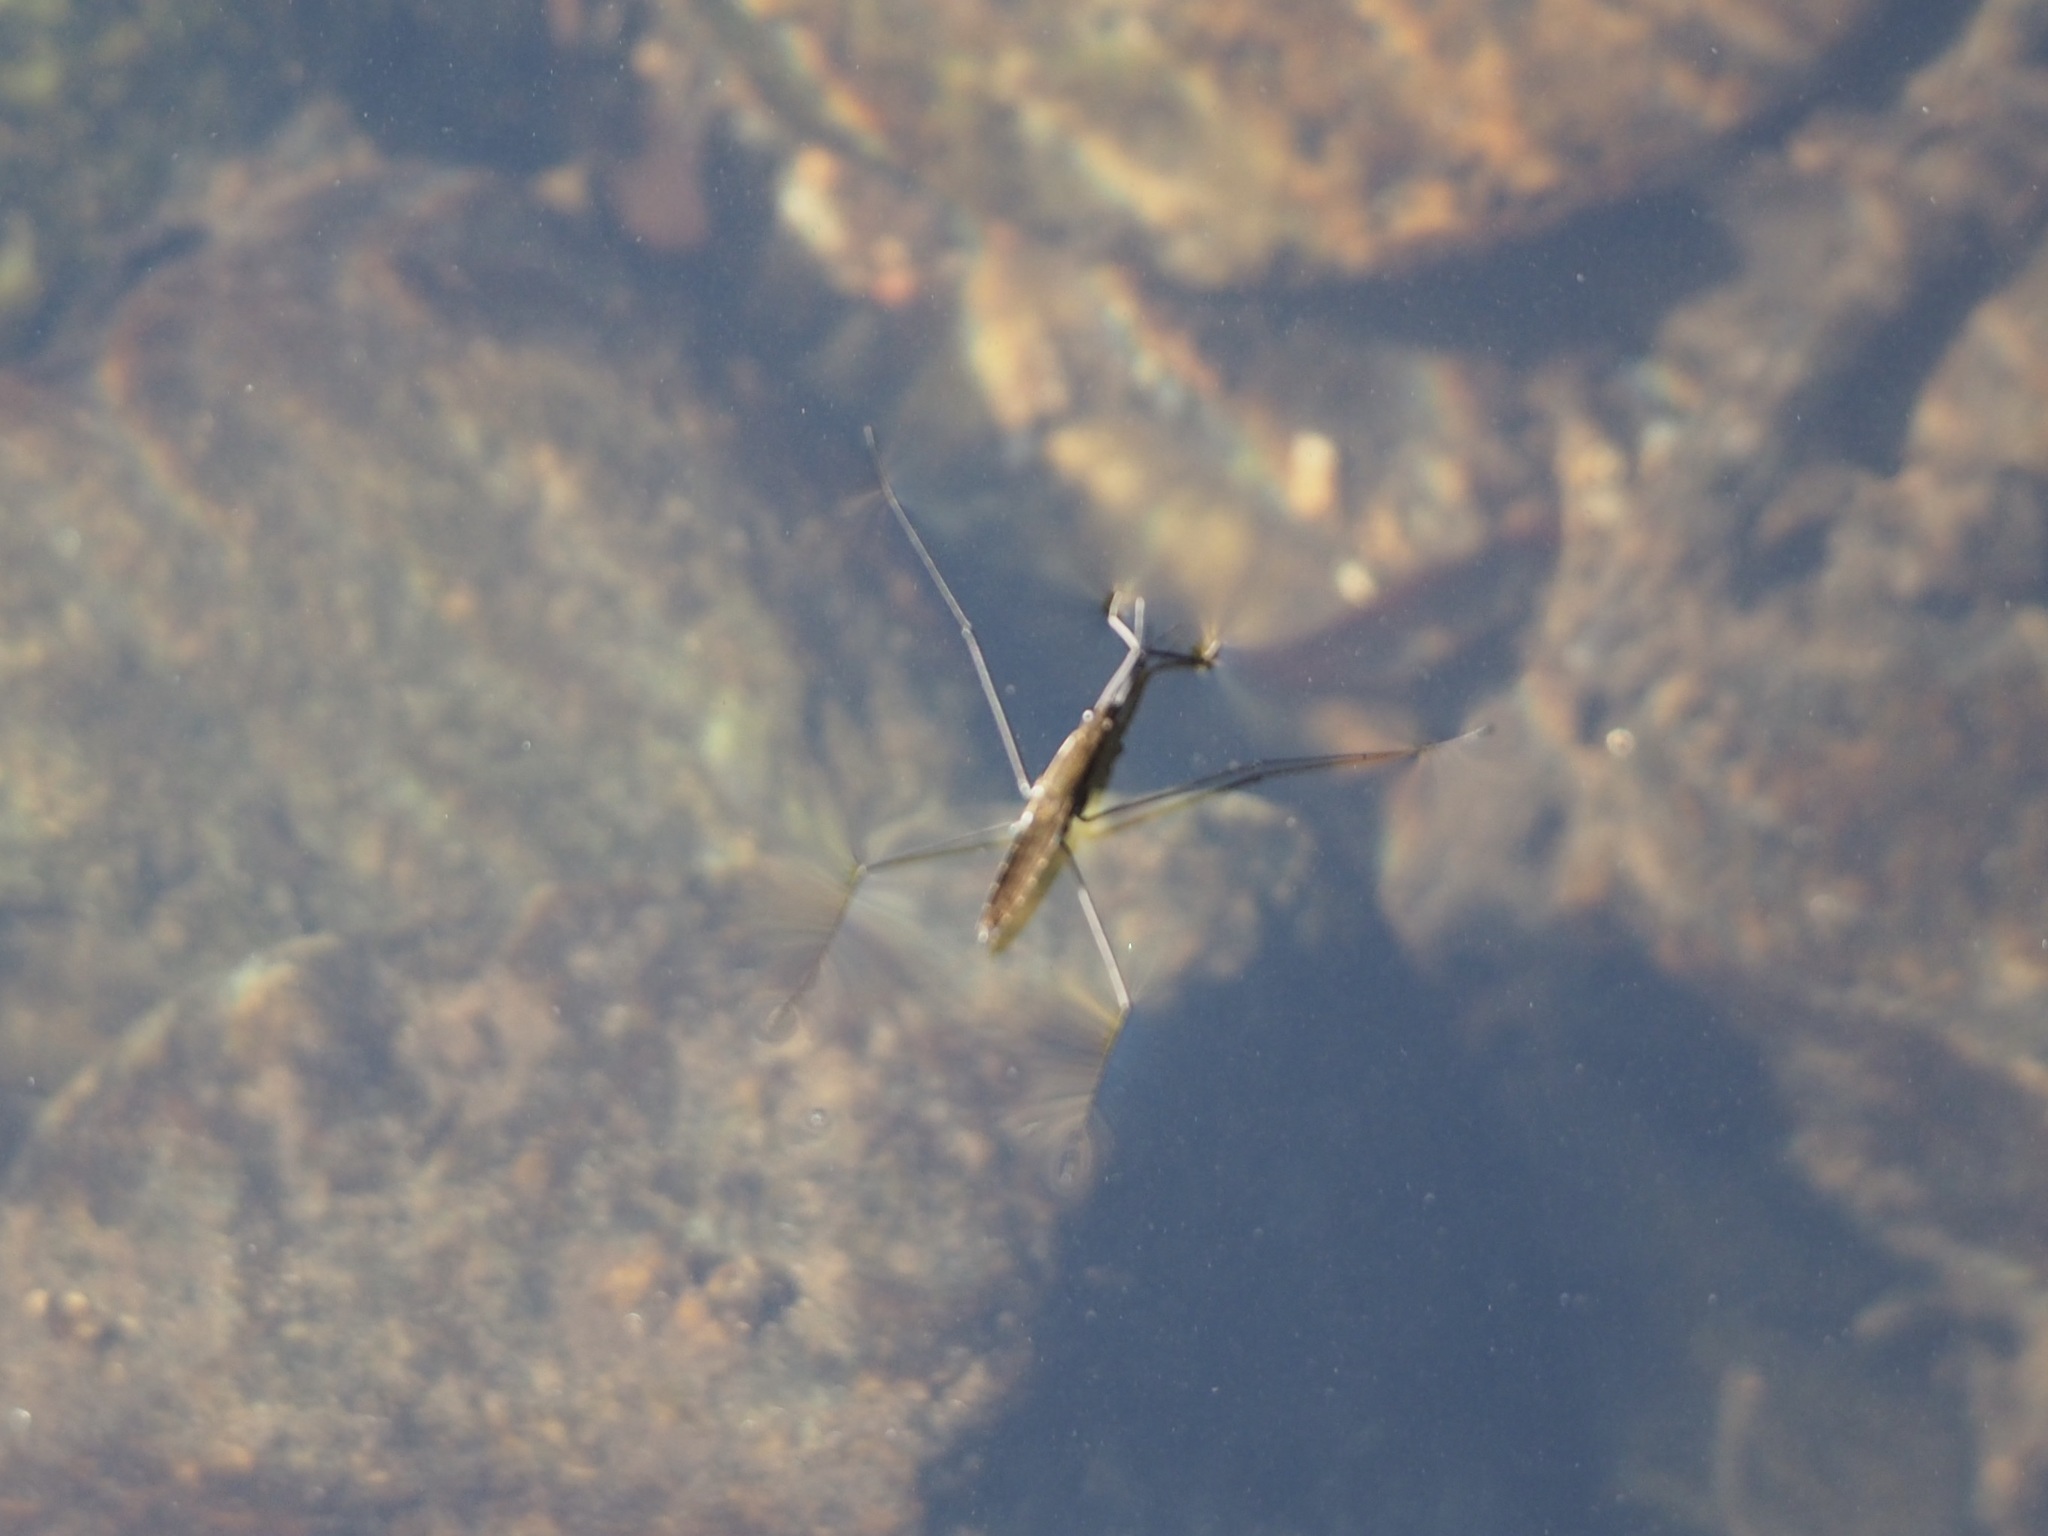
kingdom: Animalia
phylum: Arthropoda
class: Insecta
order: Hemiptera
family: Gerridae
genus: Aquarius
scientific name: Aquarius najas
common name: River skater
